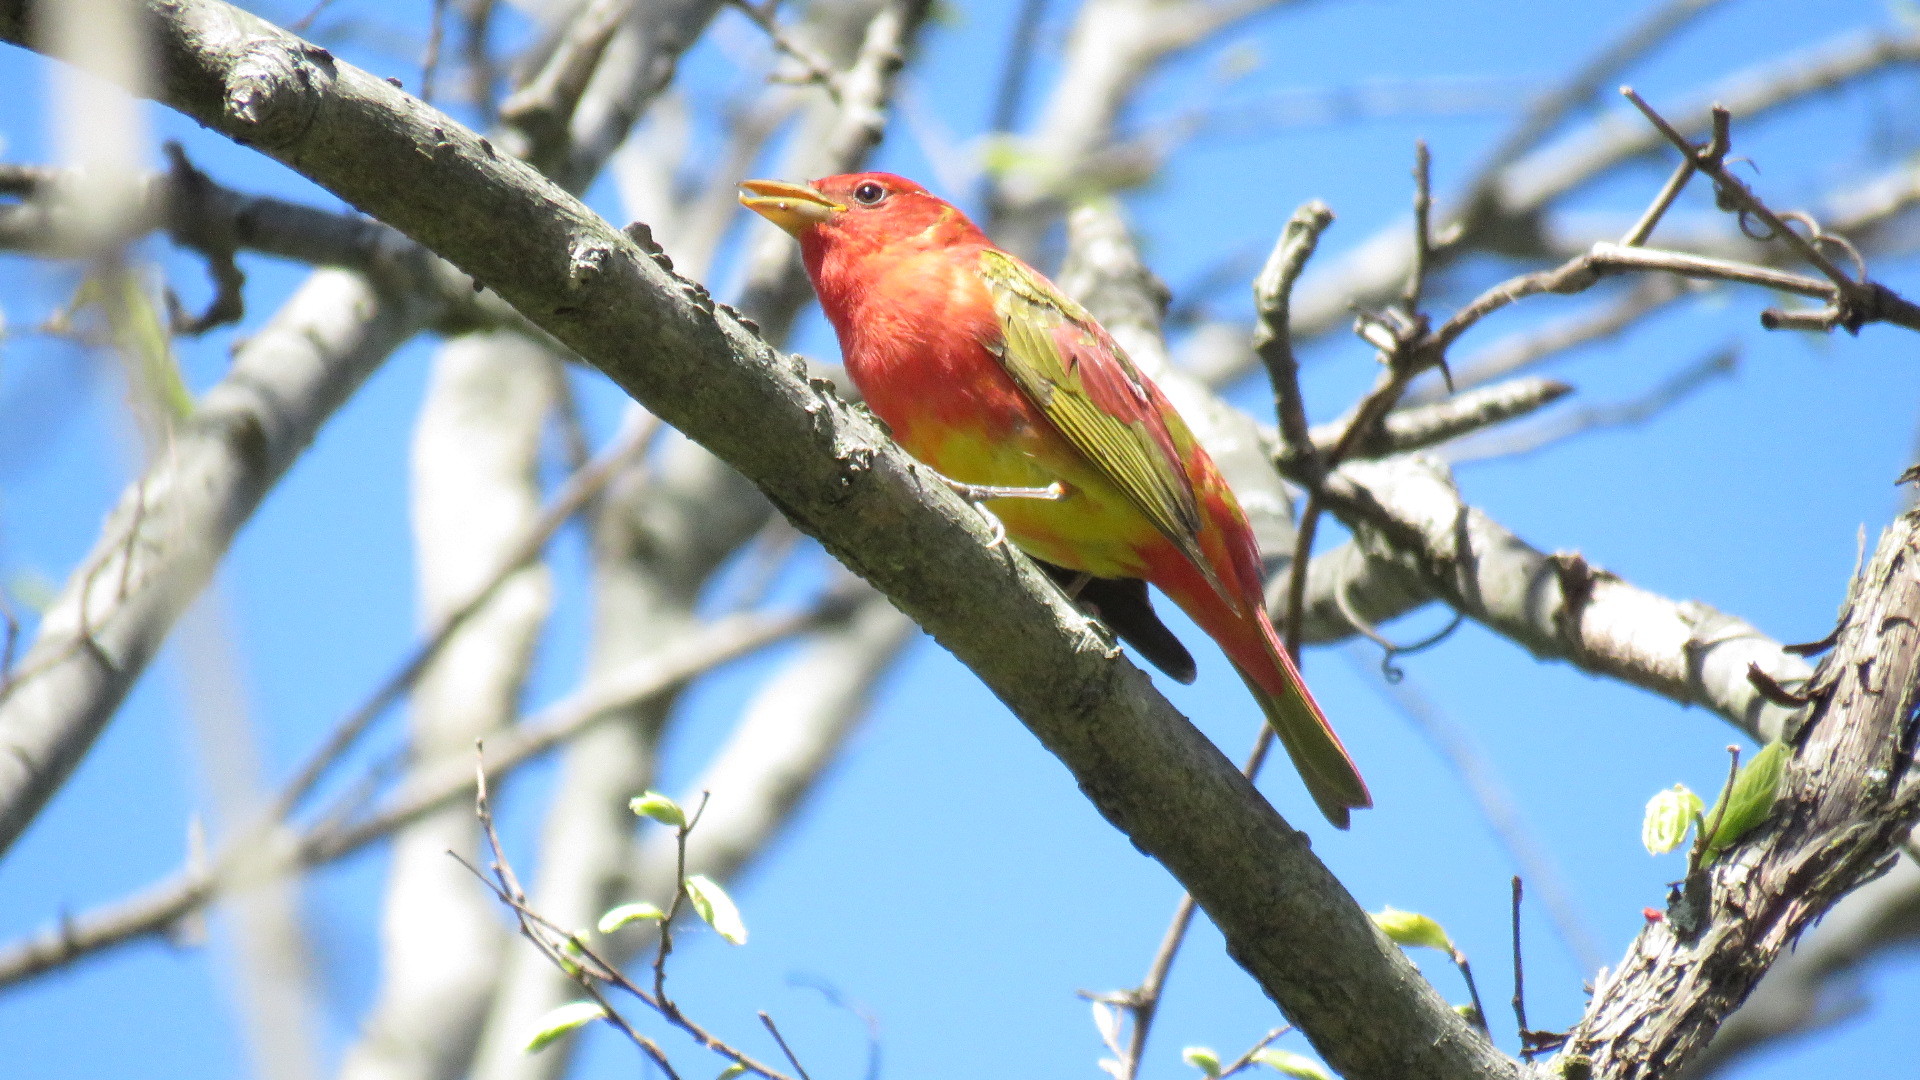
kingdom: Animalia
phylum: Chordata
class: Aves
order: Passeriformes
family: Cardinalidae
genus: Piranga
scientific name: Piranga rubra
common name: Summer tanager
